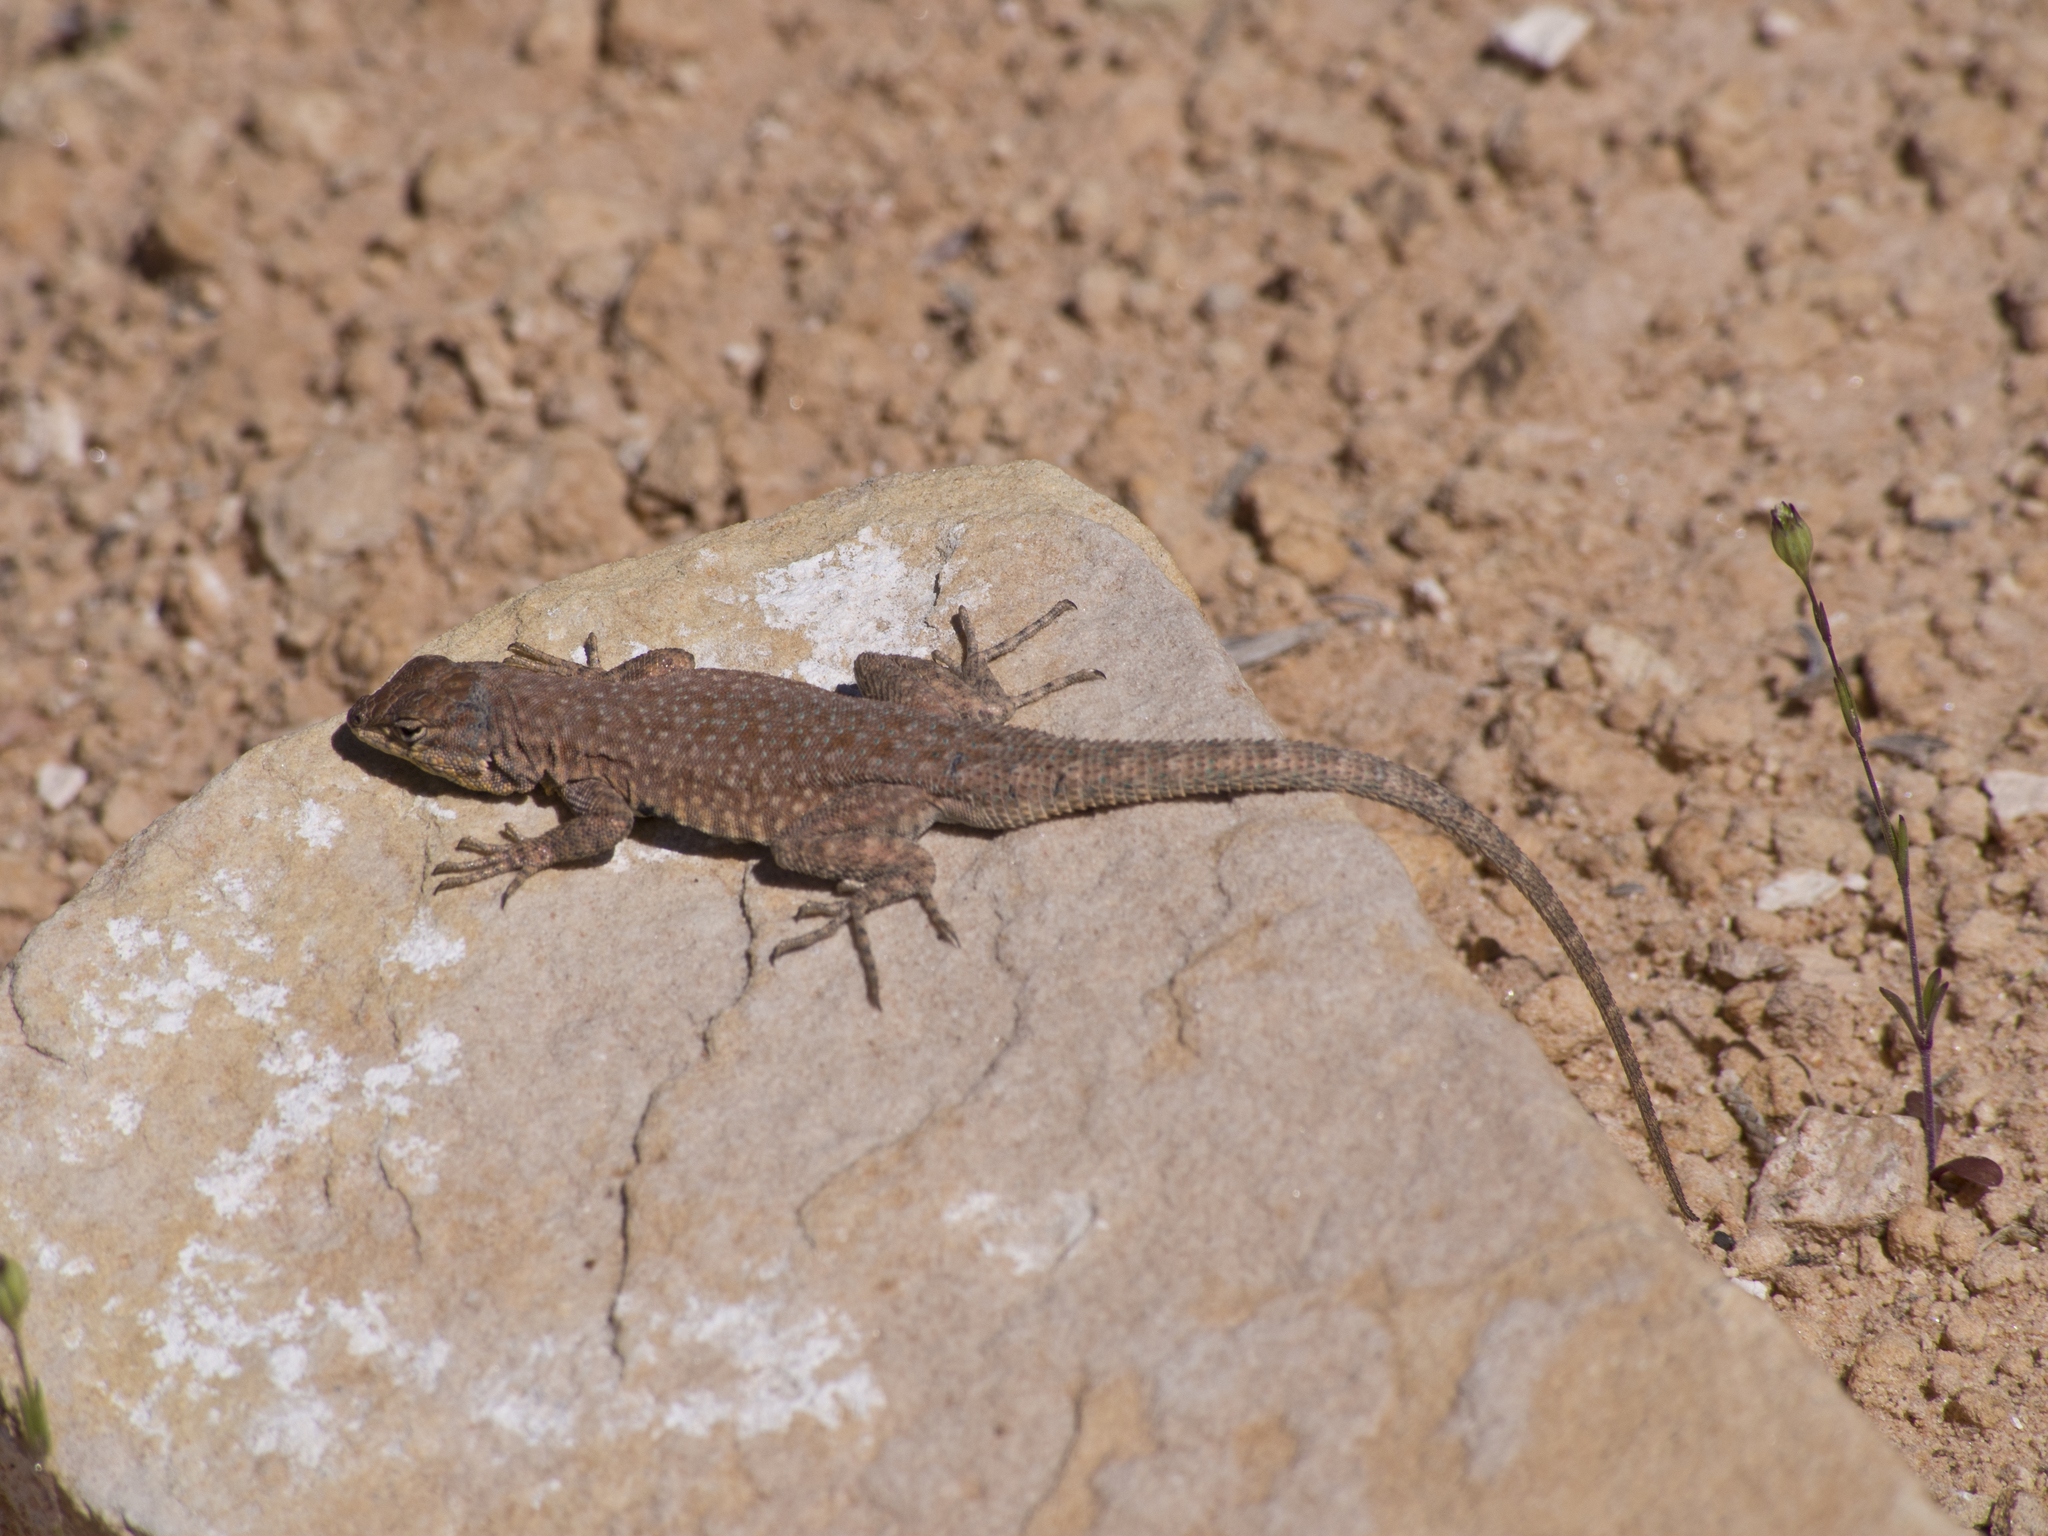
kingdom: Animalia
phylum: Chordata
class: Squamata
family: Phrynosomatidae
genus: Uta
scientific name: Uta stansburiana
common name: Side-blotched lizard
